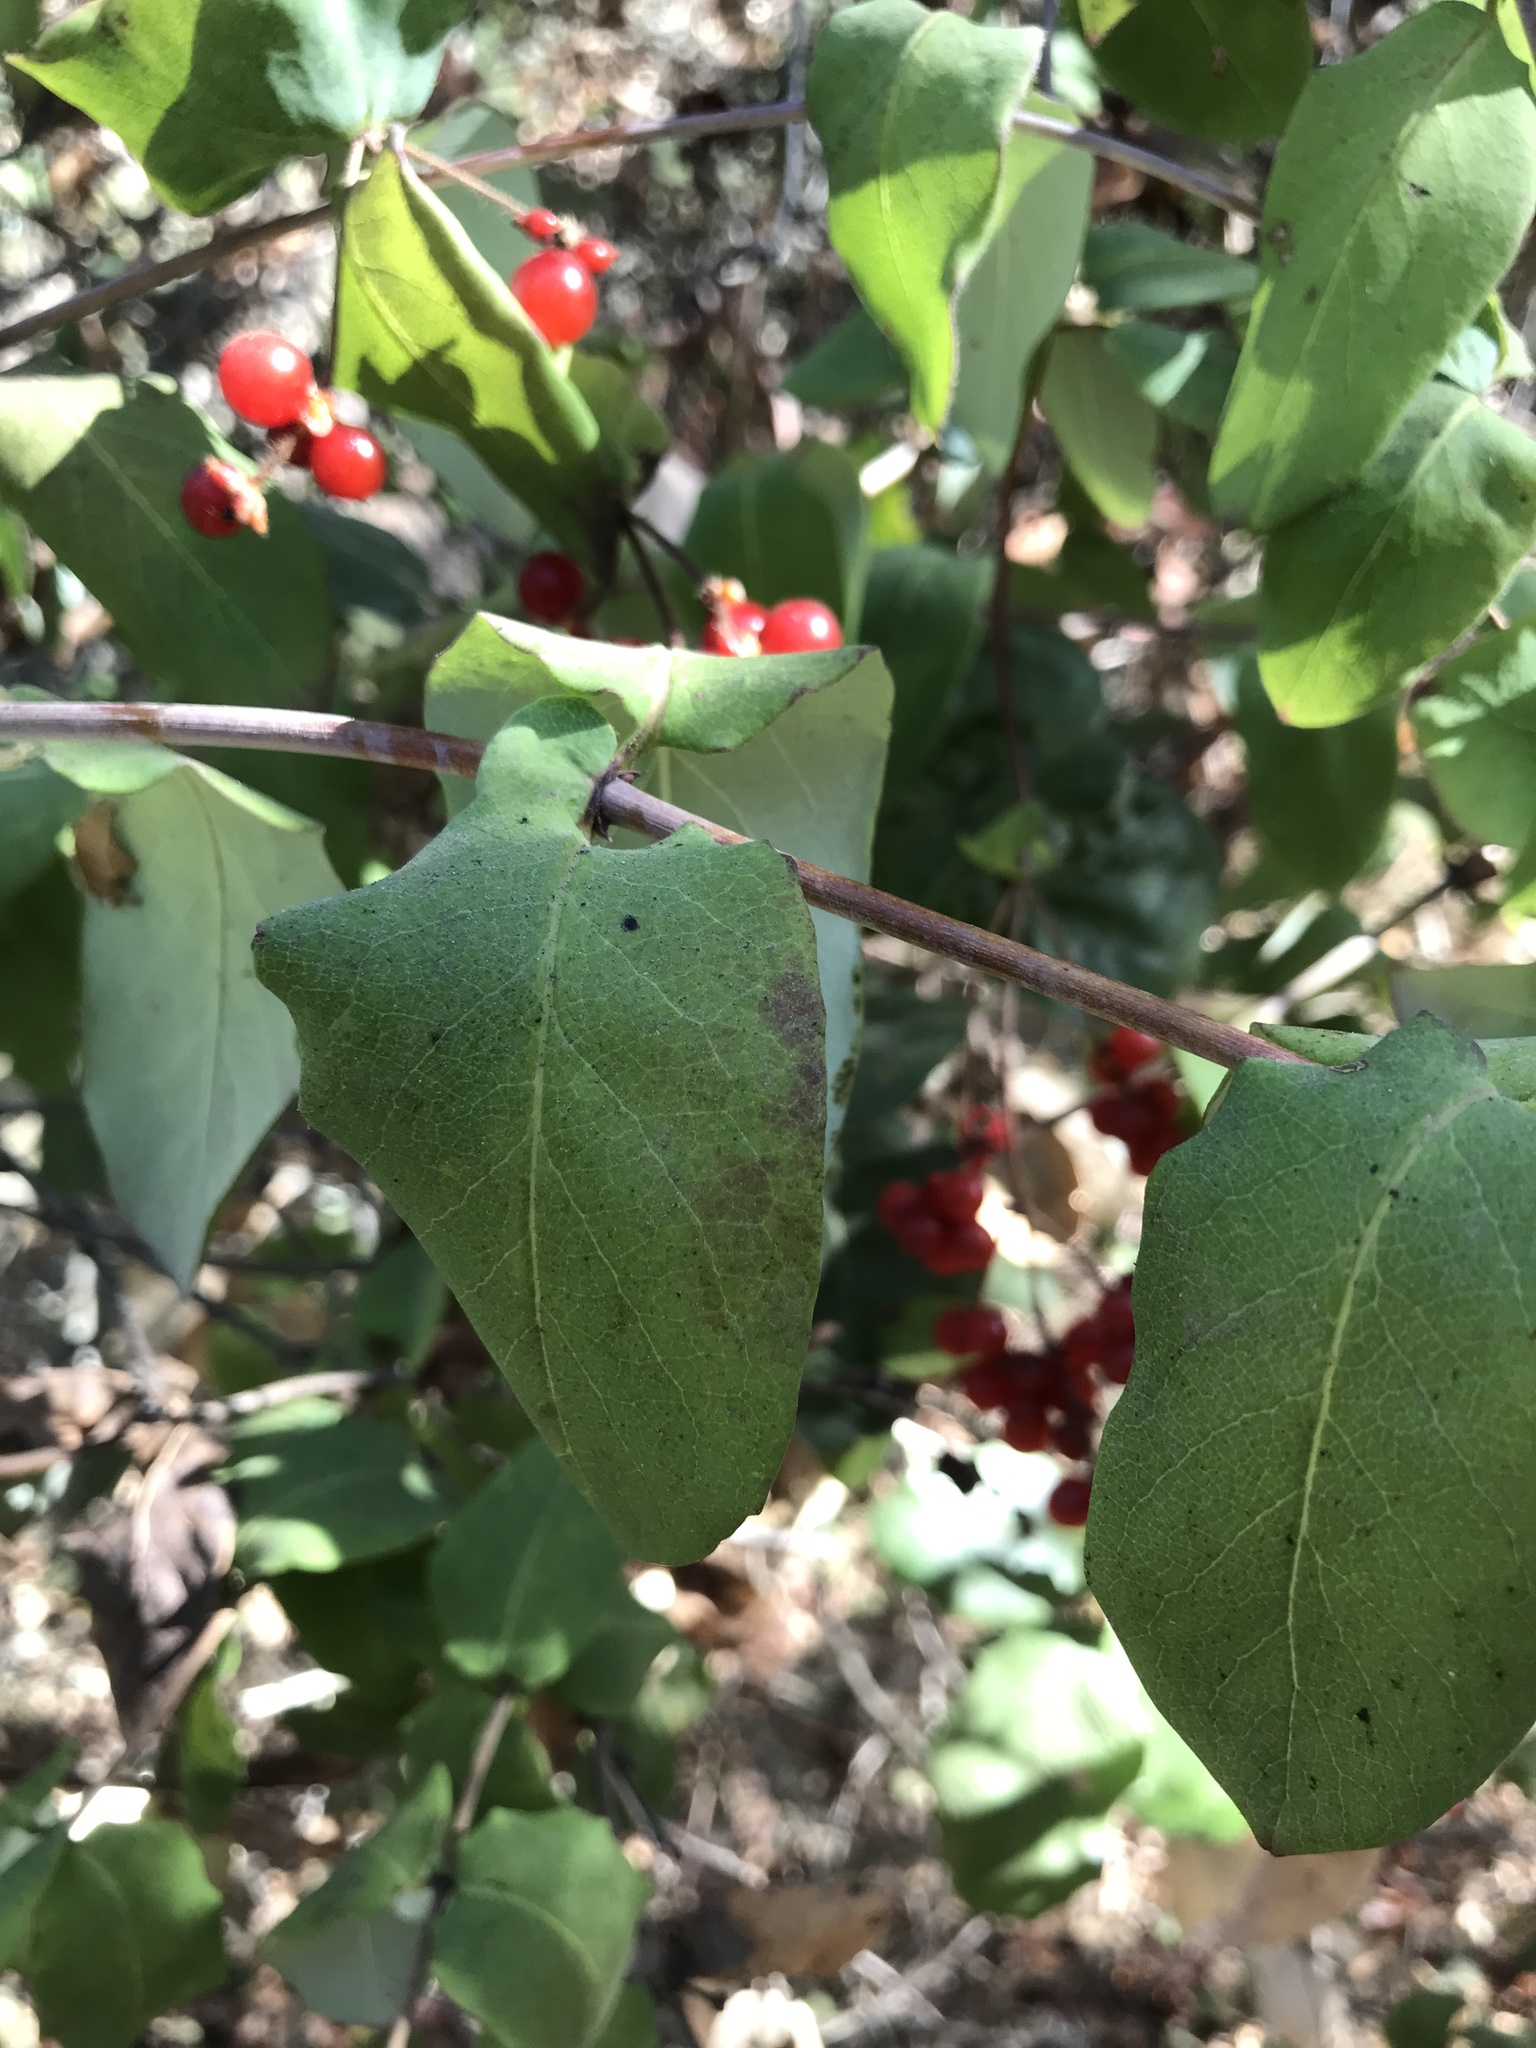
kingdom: Plantae
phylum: Tracheophyta
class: Magnoliopsida
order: Dipsacales
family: Caprifoliaceae
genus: Lonicera
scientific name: Lonicera hispidula
